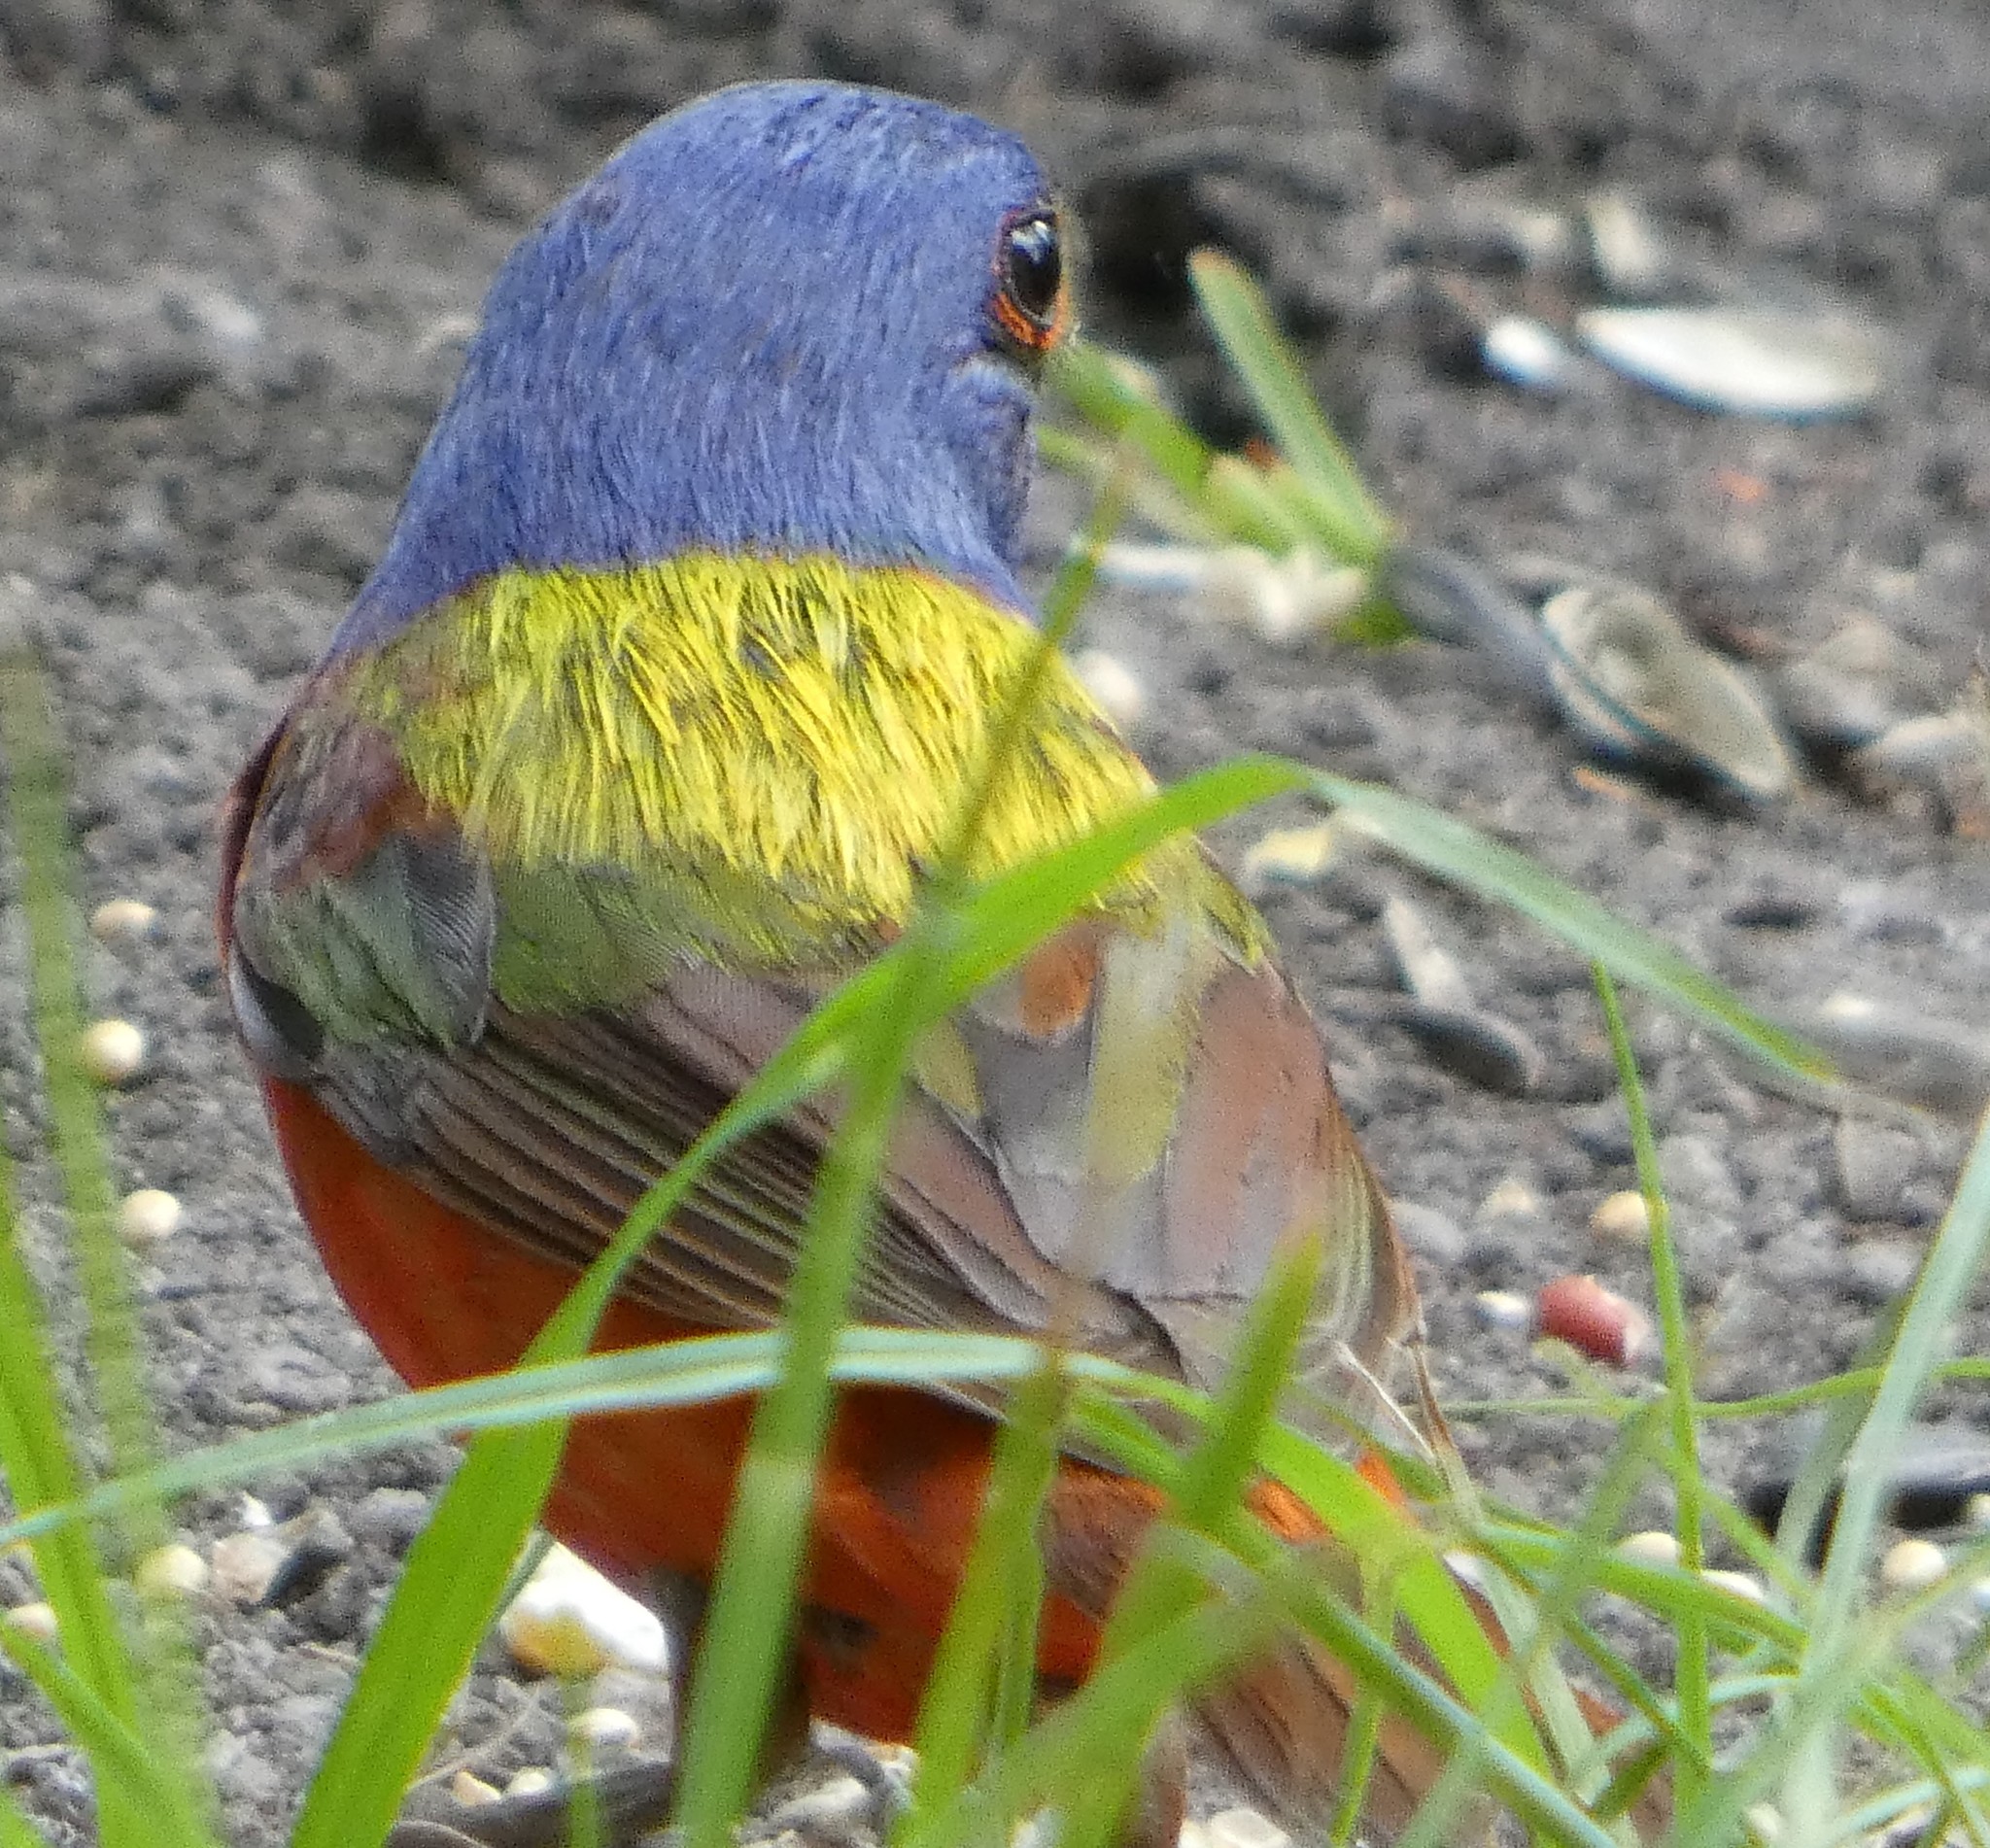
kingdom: Animalia
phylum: Chordata
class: Aves
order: Passeriformes
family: Cardinalidae
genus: Passerina
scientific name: Passerina ciris
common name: Painted bunting
